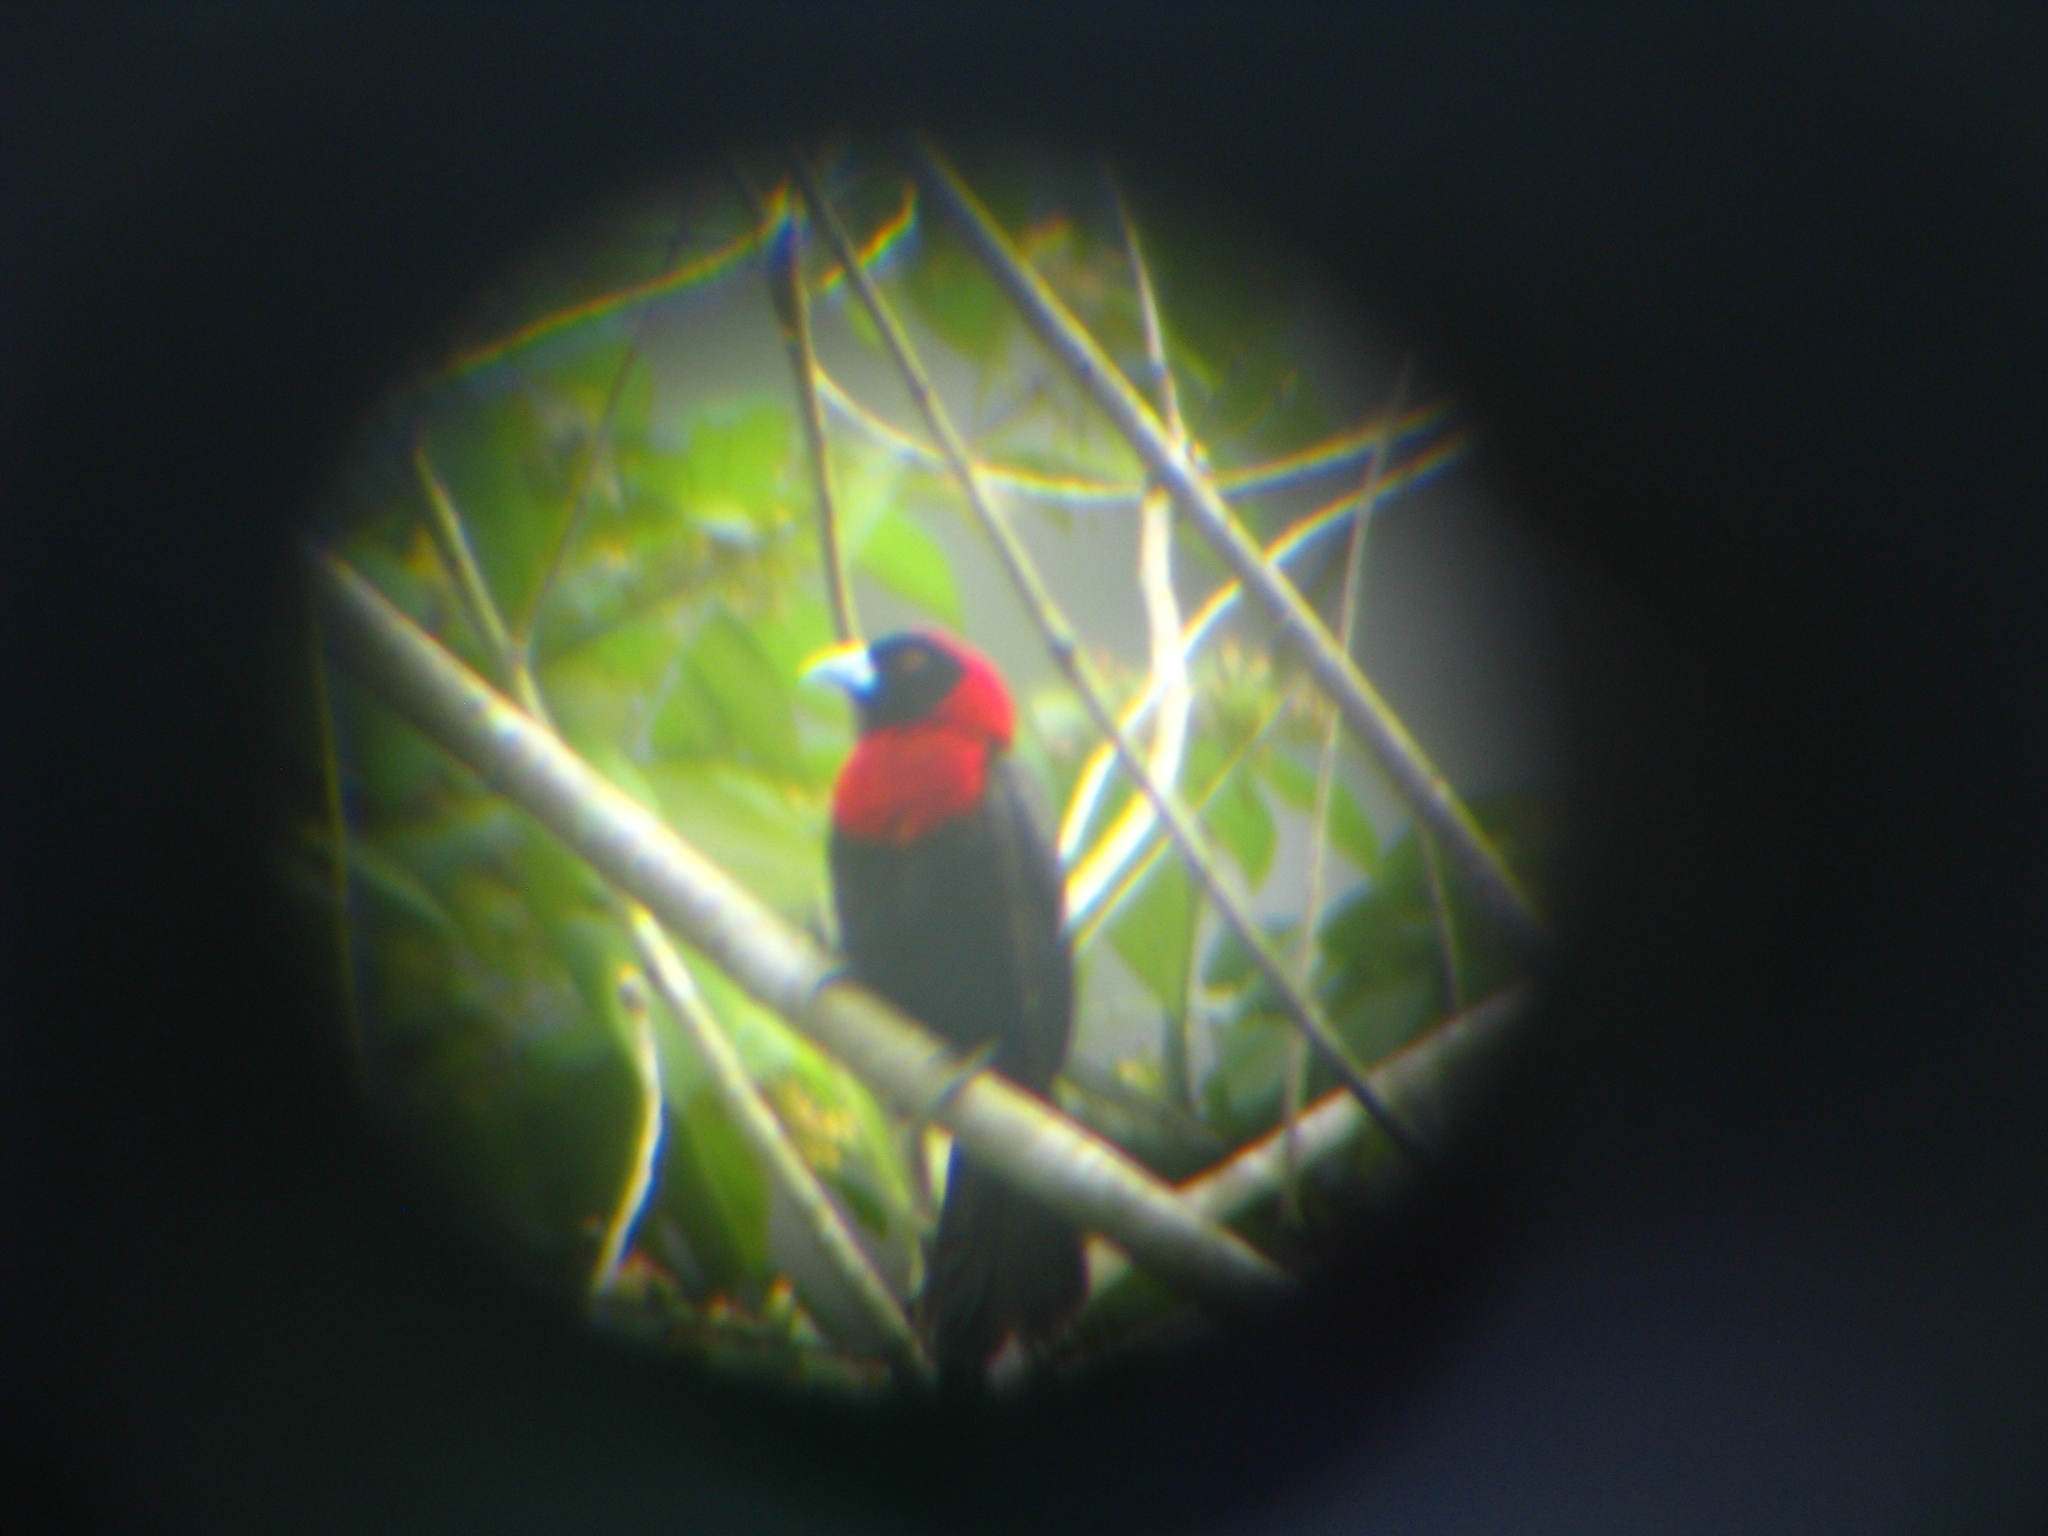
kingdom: Animalia
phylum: Chordata
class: Aves
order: Passeriformes
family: Thraupidae
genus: Ramphocelus
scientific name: Ramphocelus sanguinolentus
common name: Crimson-collared tanager
